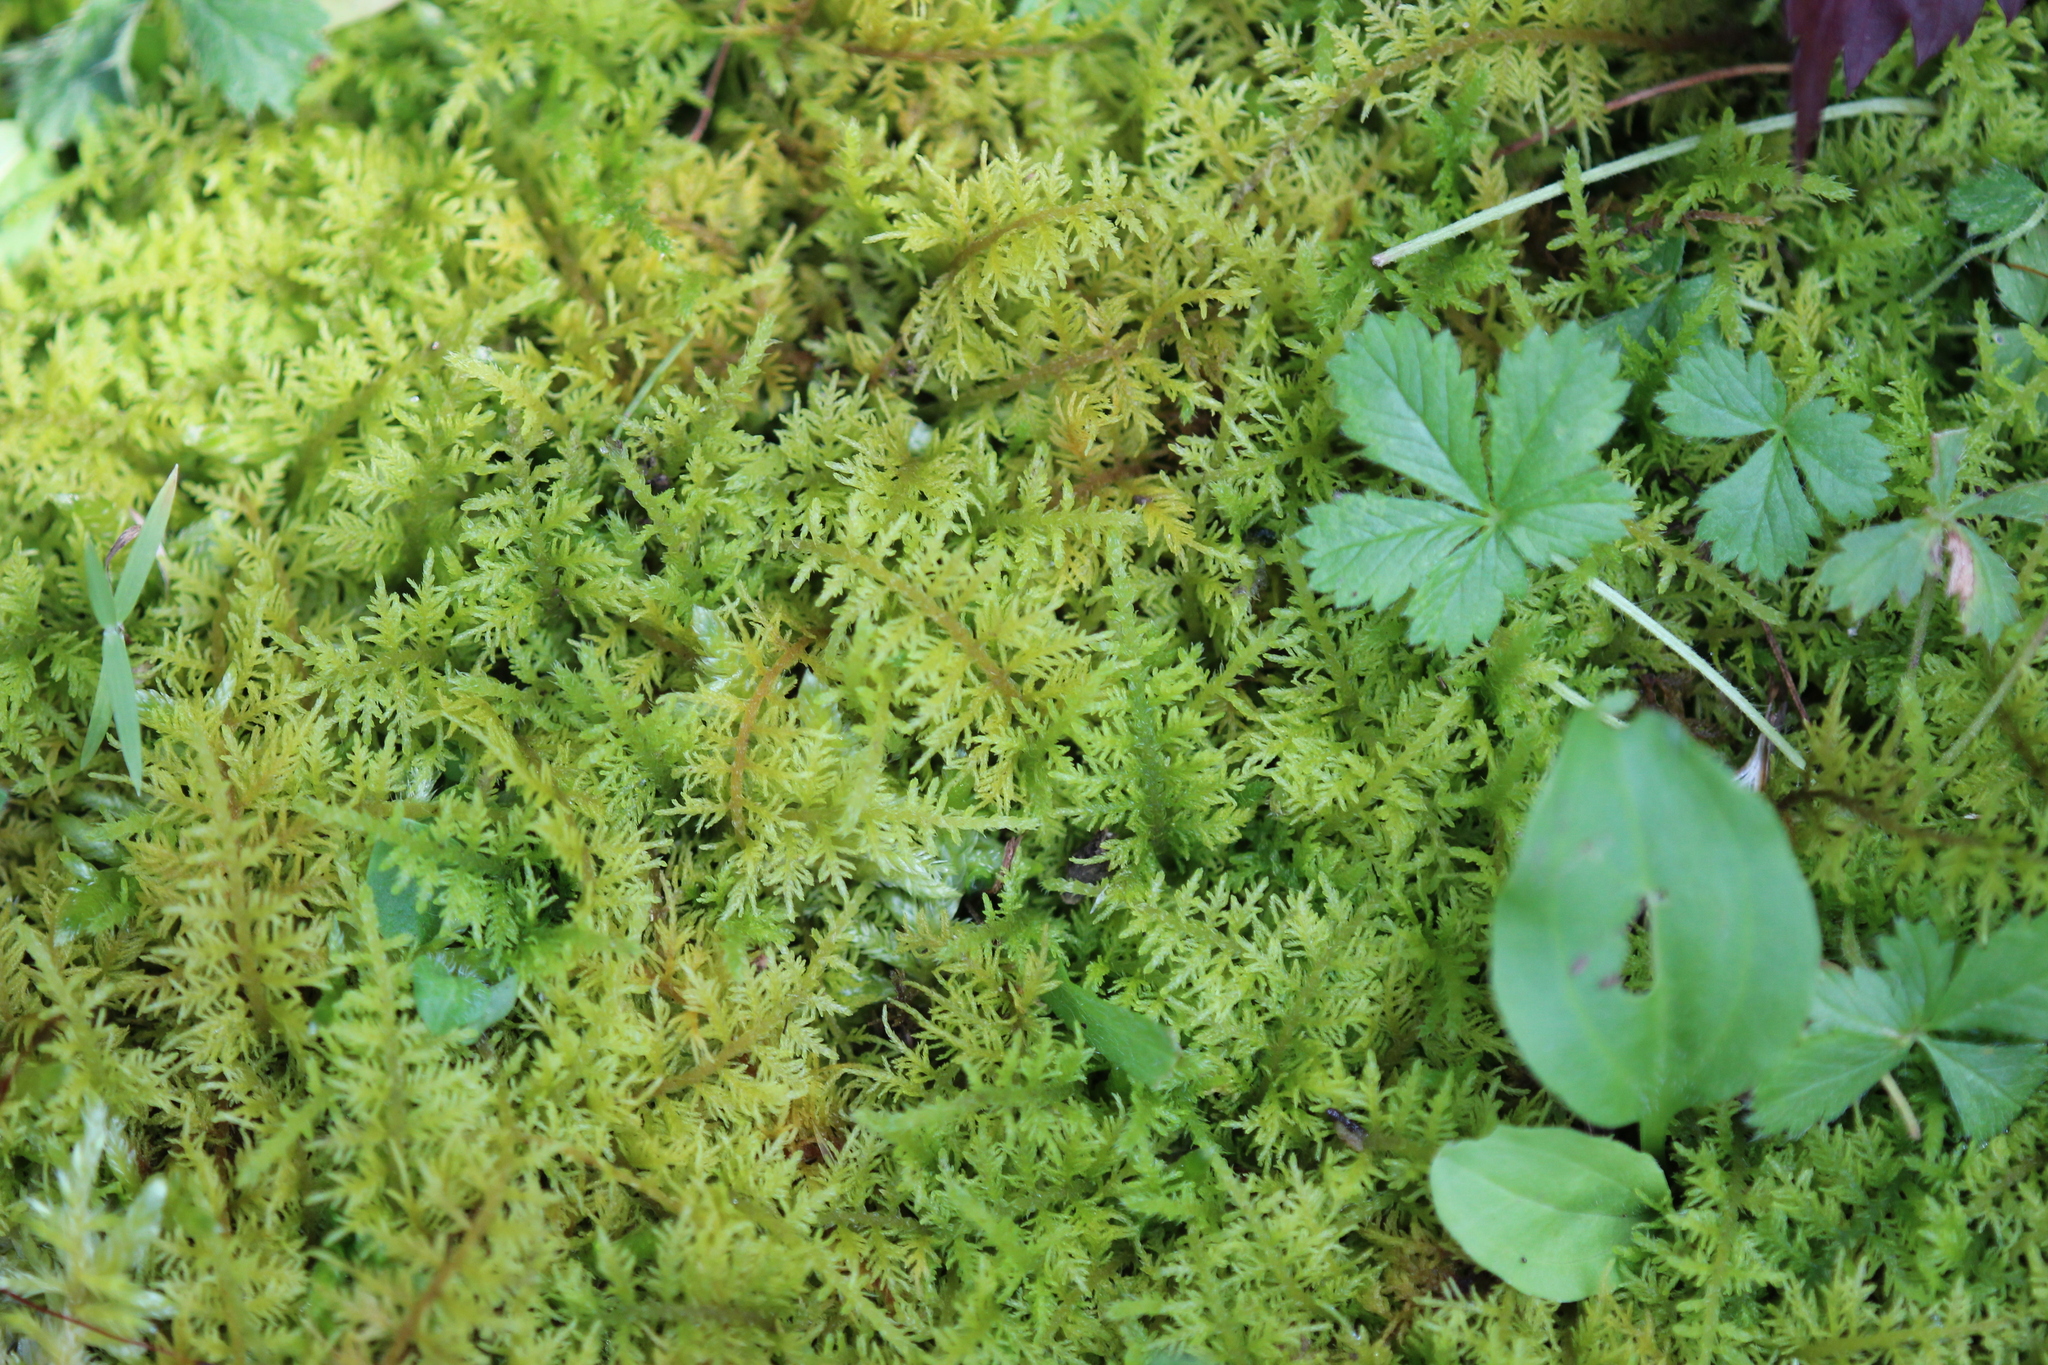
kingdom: Plantae
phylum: Bryophyta
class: Bryopsida
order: Hypnales
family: Thuidiaceae
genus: Thuidium
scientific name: Thuidium delicatulum
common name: Delicate fern moss
